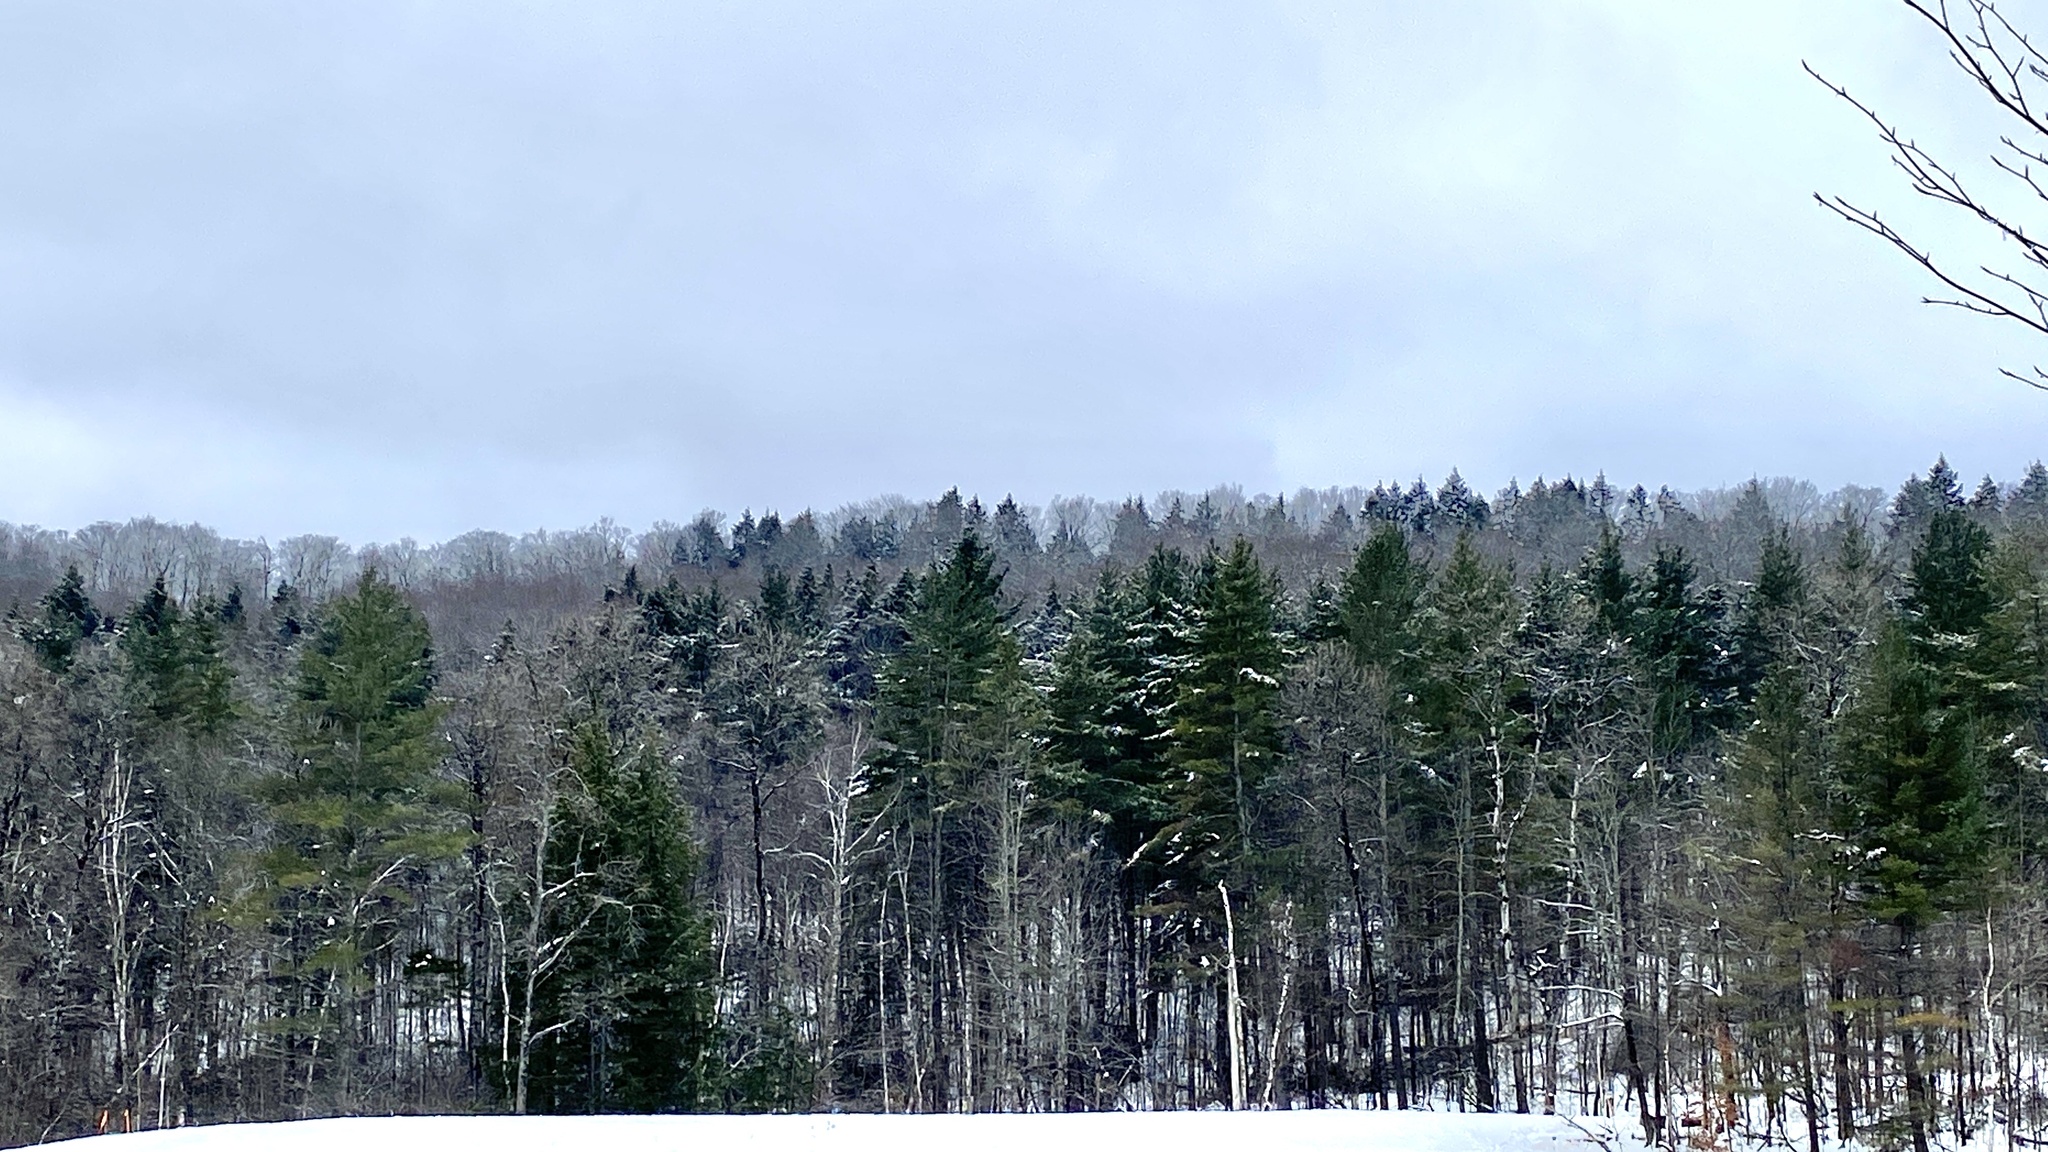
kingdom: Plantae
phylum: Tracheophyta
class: Pinopsida
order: Pinales
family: Pinaceae
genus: Pinus
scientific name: Pinus strobus
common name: Weymouth pine
